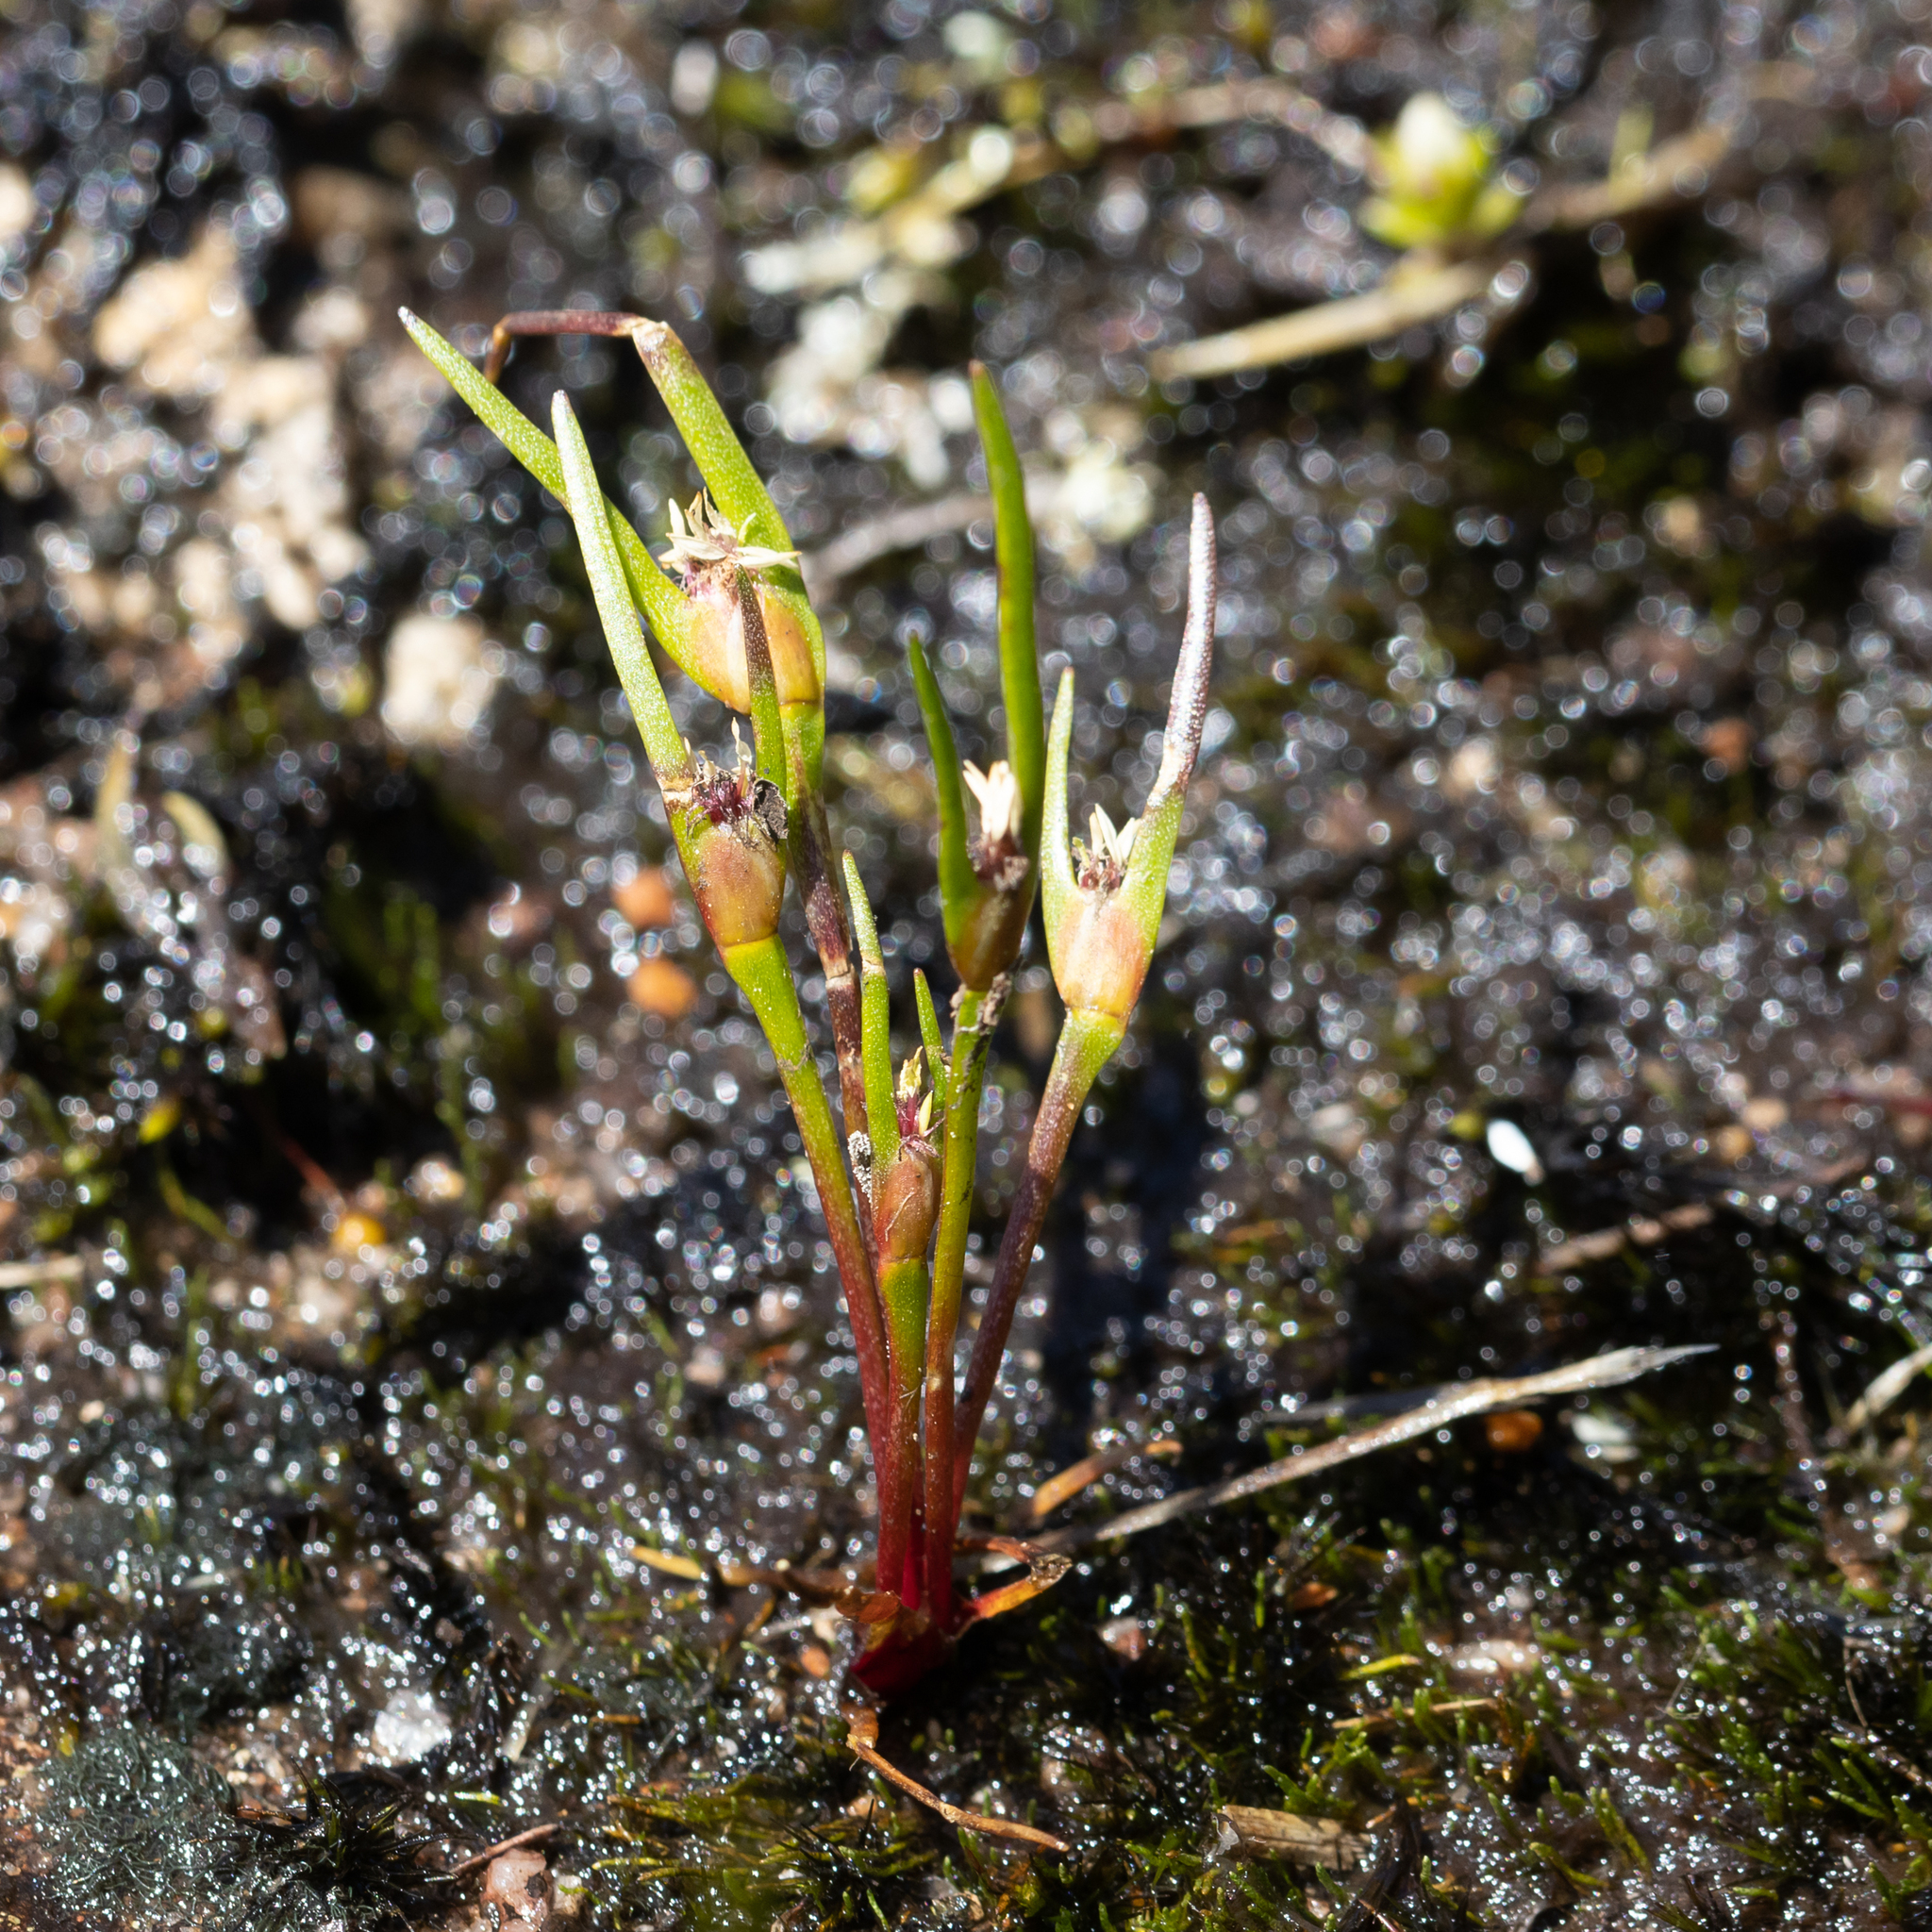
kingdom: Plantae
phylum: Tracheophyta
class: Liliopsida
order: Poales
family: Restionaceae
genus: Centrolepis
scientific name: Centrolepis aristata
